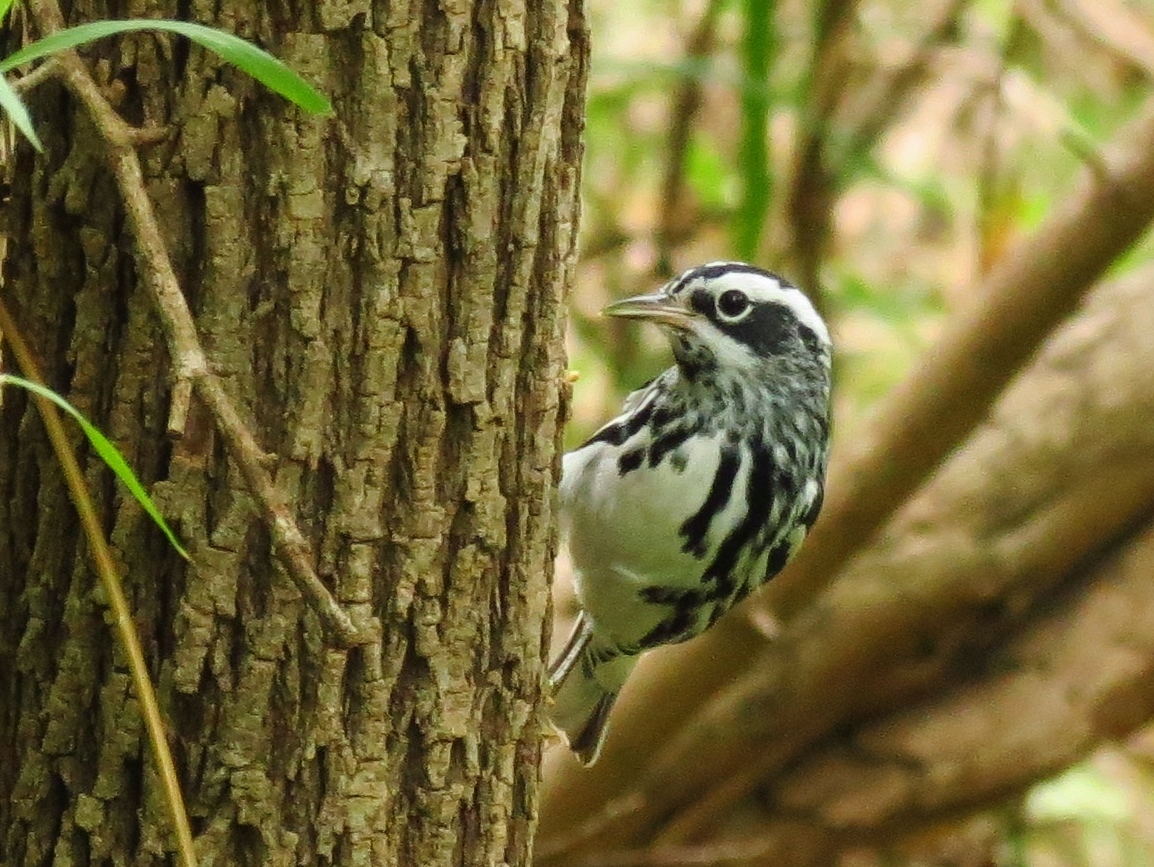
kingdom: Animalia
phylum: Chordata
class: Aves
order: Passeriformes
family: Parulidae
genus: Mniotilta
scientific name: Mniotilta varia
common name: Black-and-white warbler
